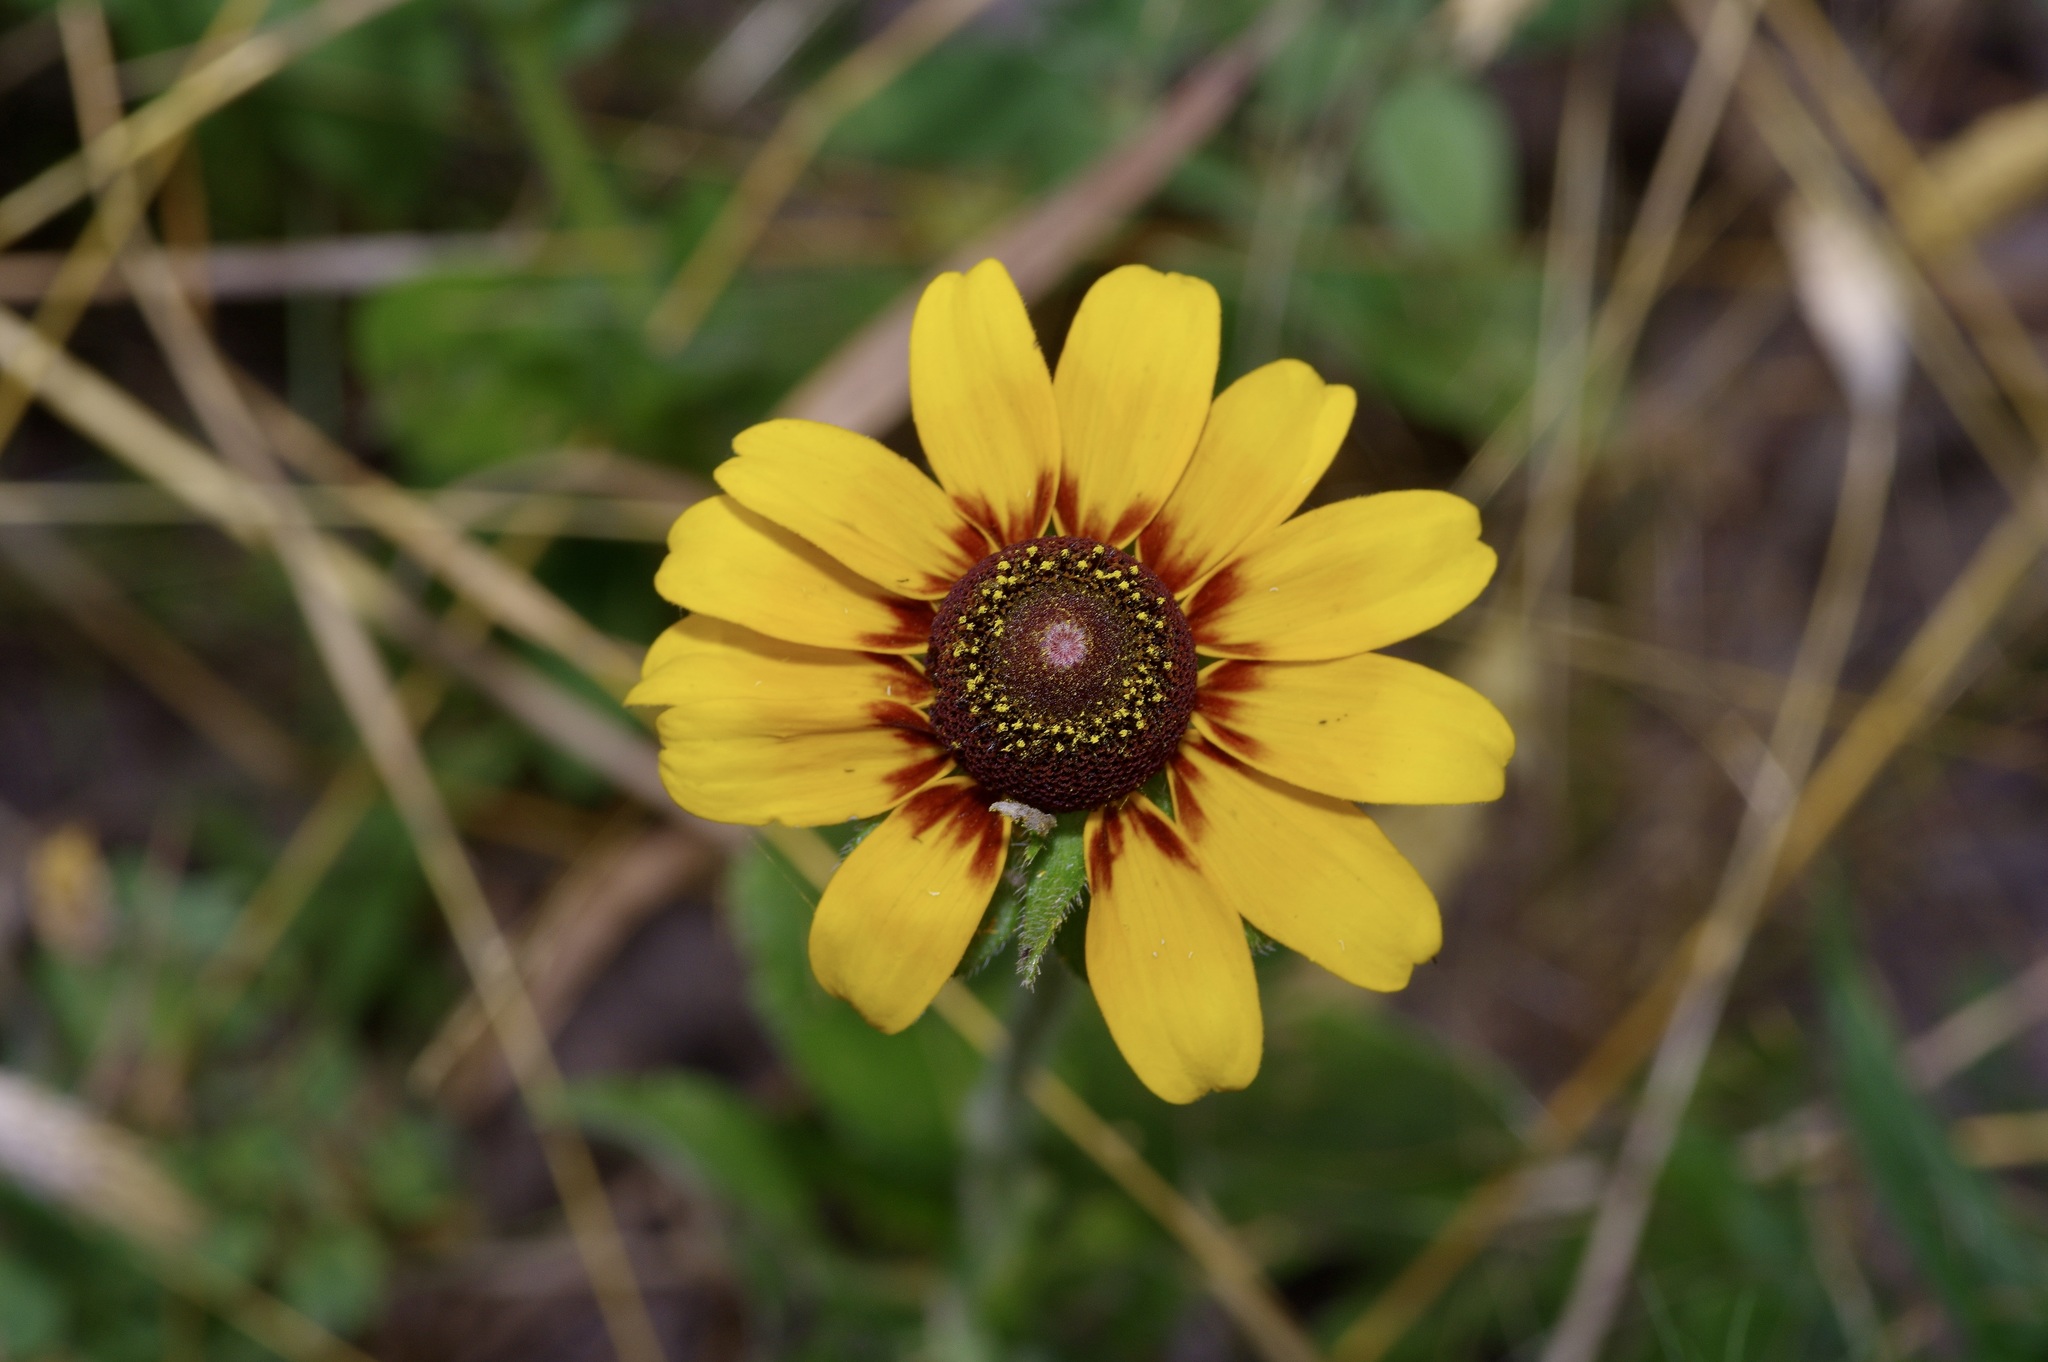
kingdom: Plantae
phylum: Tracheophyta
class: Magnoliopsida
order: Asterales
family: Asteraceae
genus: Rudbeckia
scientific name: Rudbeckia hirta
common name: Black-eyed-susan
